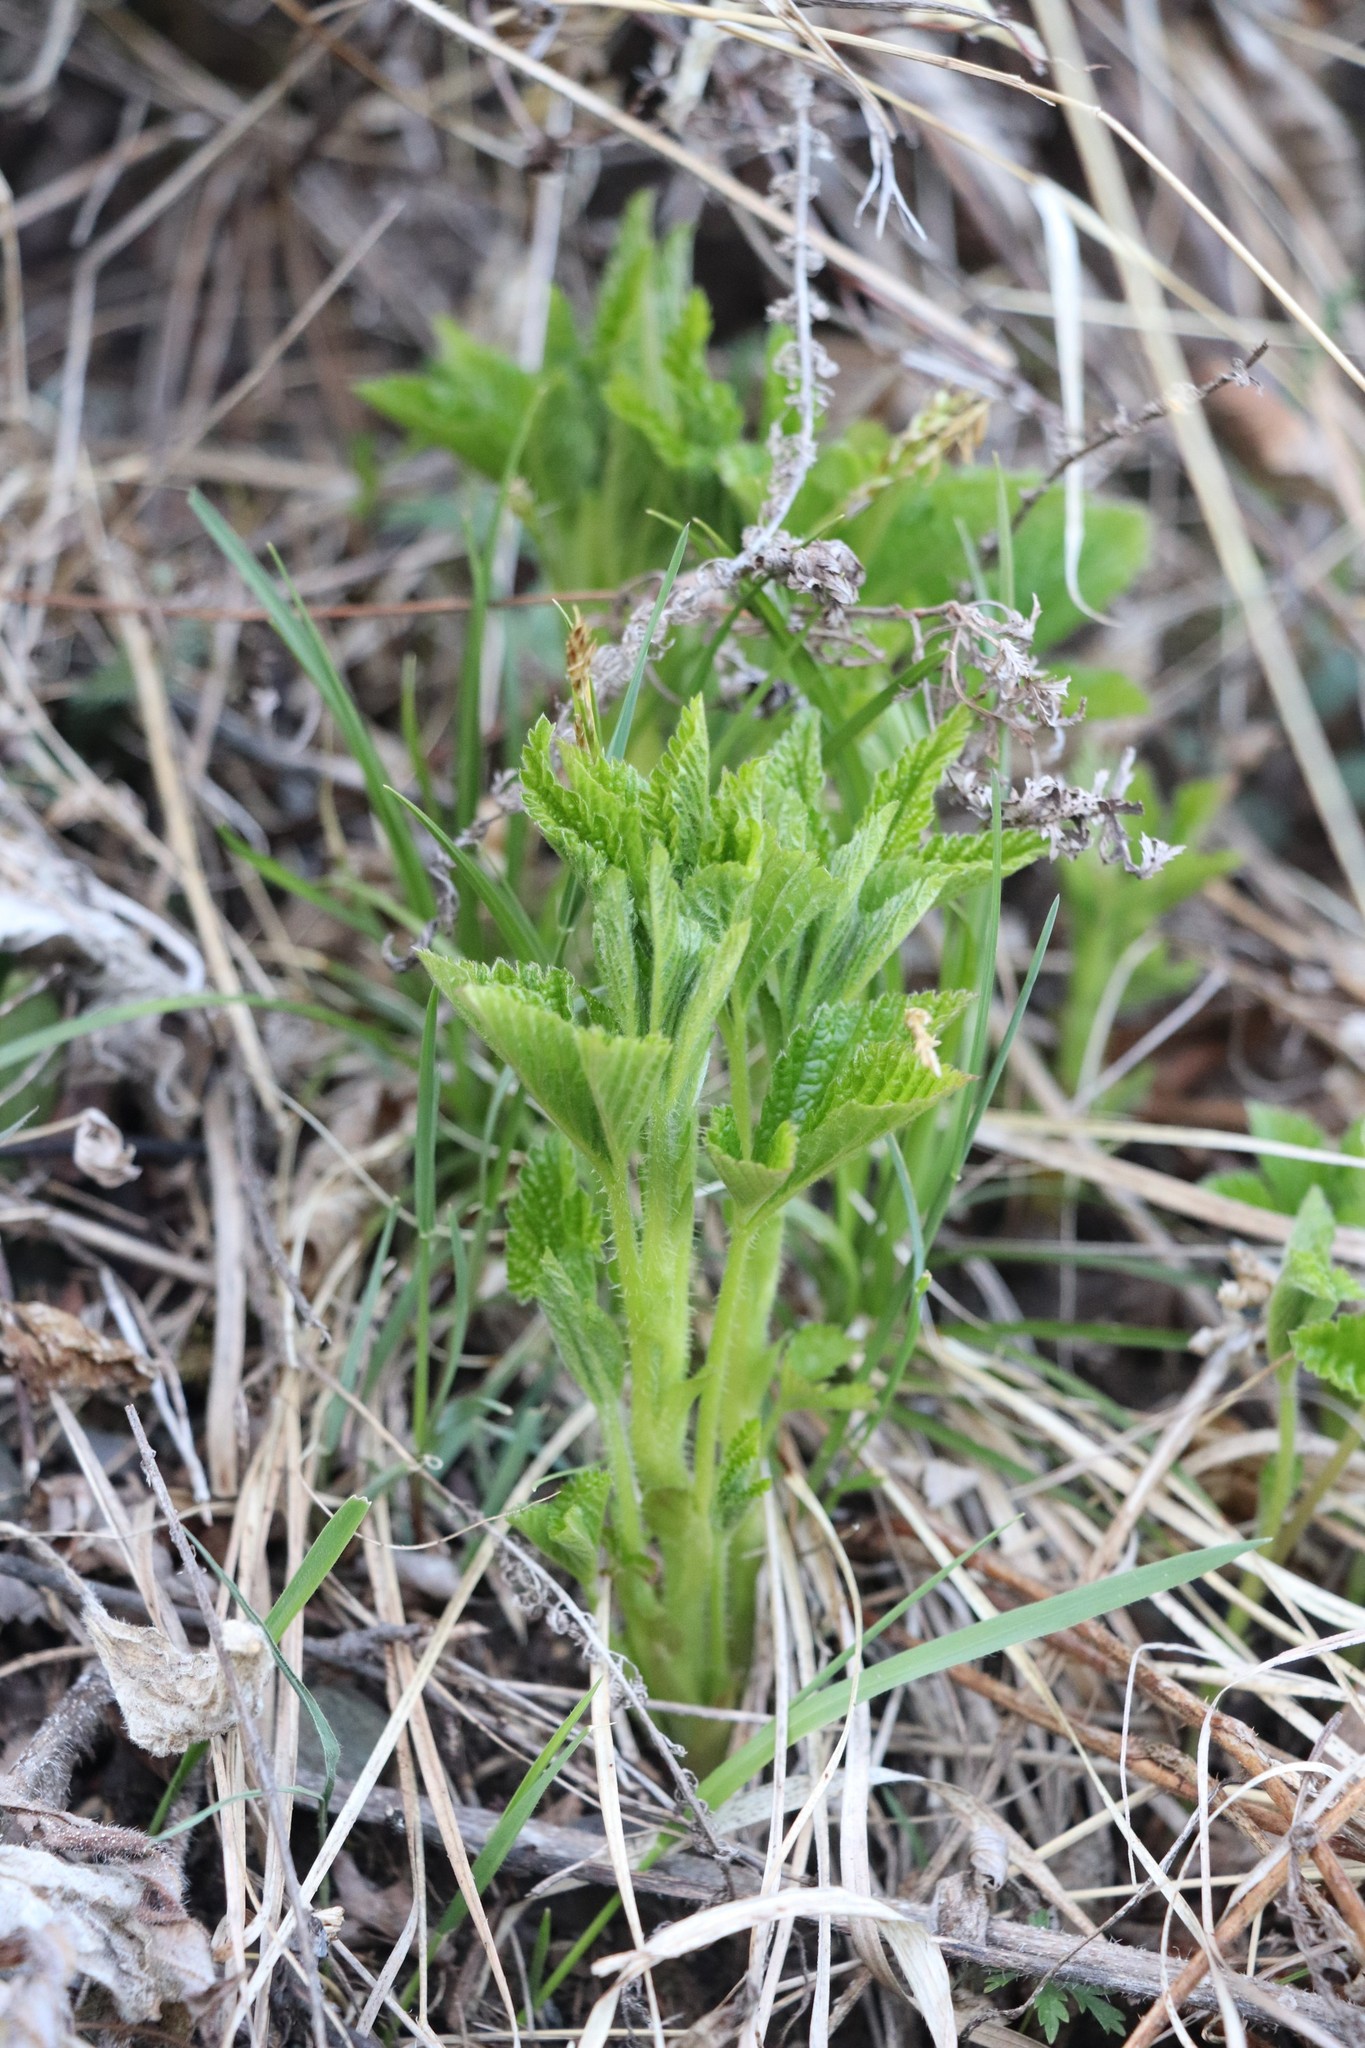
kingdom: Plantae
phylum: Tracheophyta
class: Magnoliopsida
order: Rosales
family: Rosaceae
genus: Rubus
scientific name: Rubus saxatilis
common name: Stone bramble
